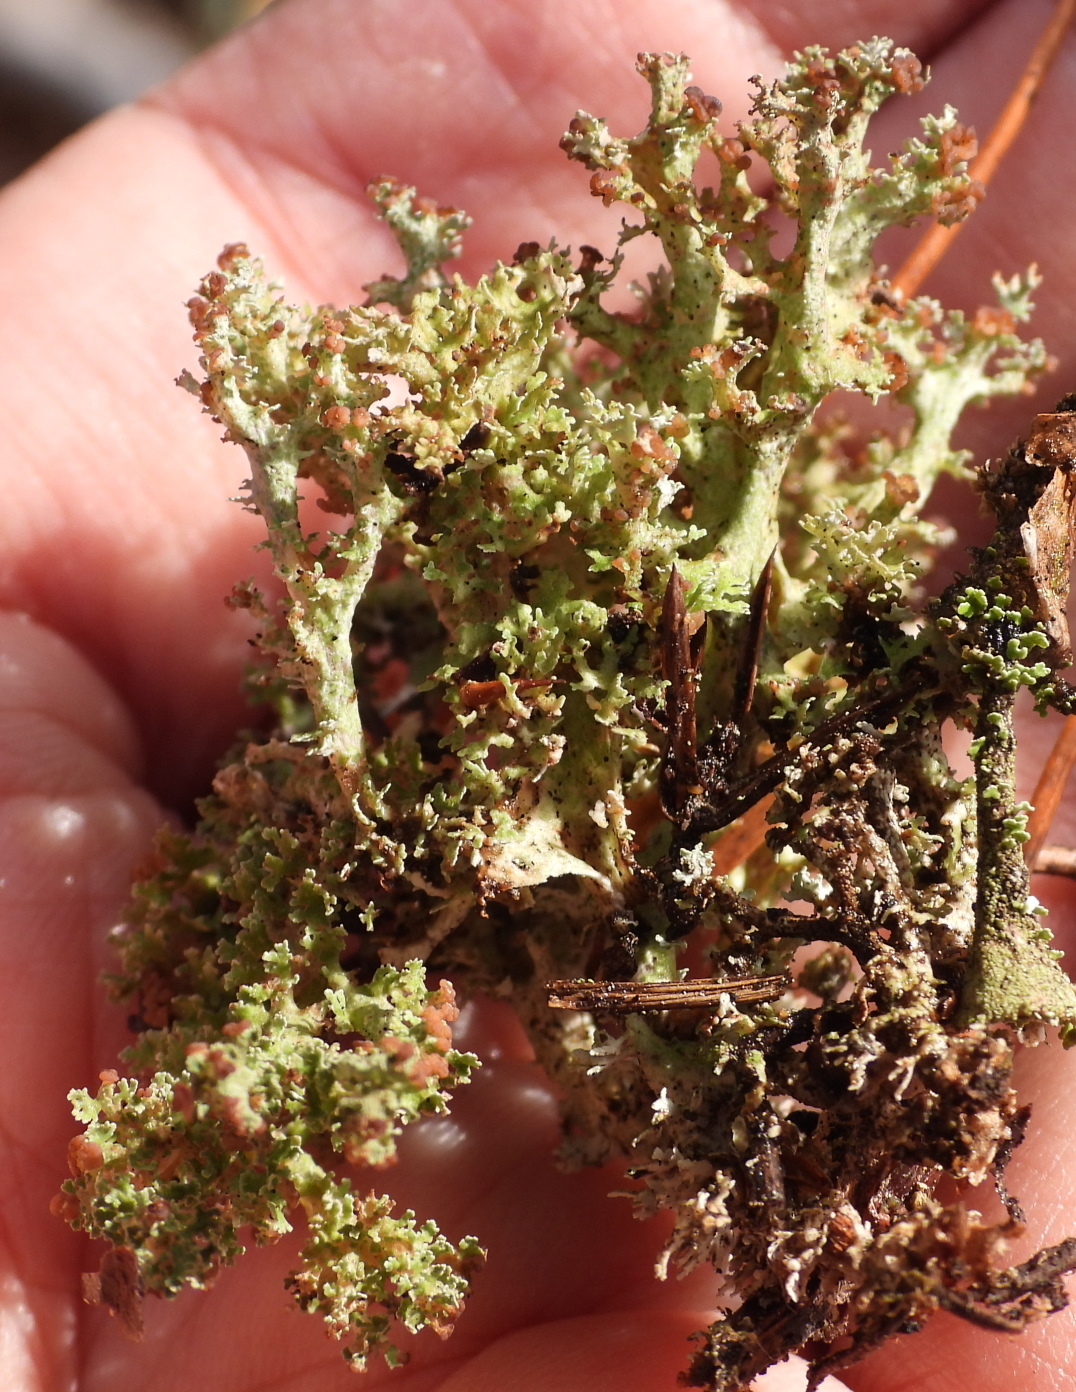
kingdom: Fungi
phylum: Ascomycota
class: Lecanoromycetes
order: Lecanorales
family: Cladoniaceae
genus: Cladonia
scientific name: Cladonia crispata
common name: Organ-pipe lichen
